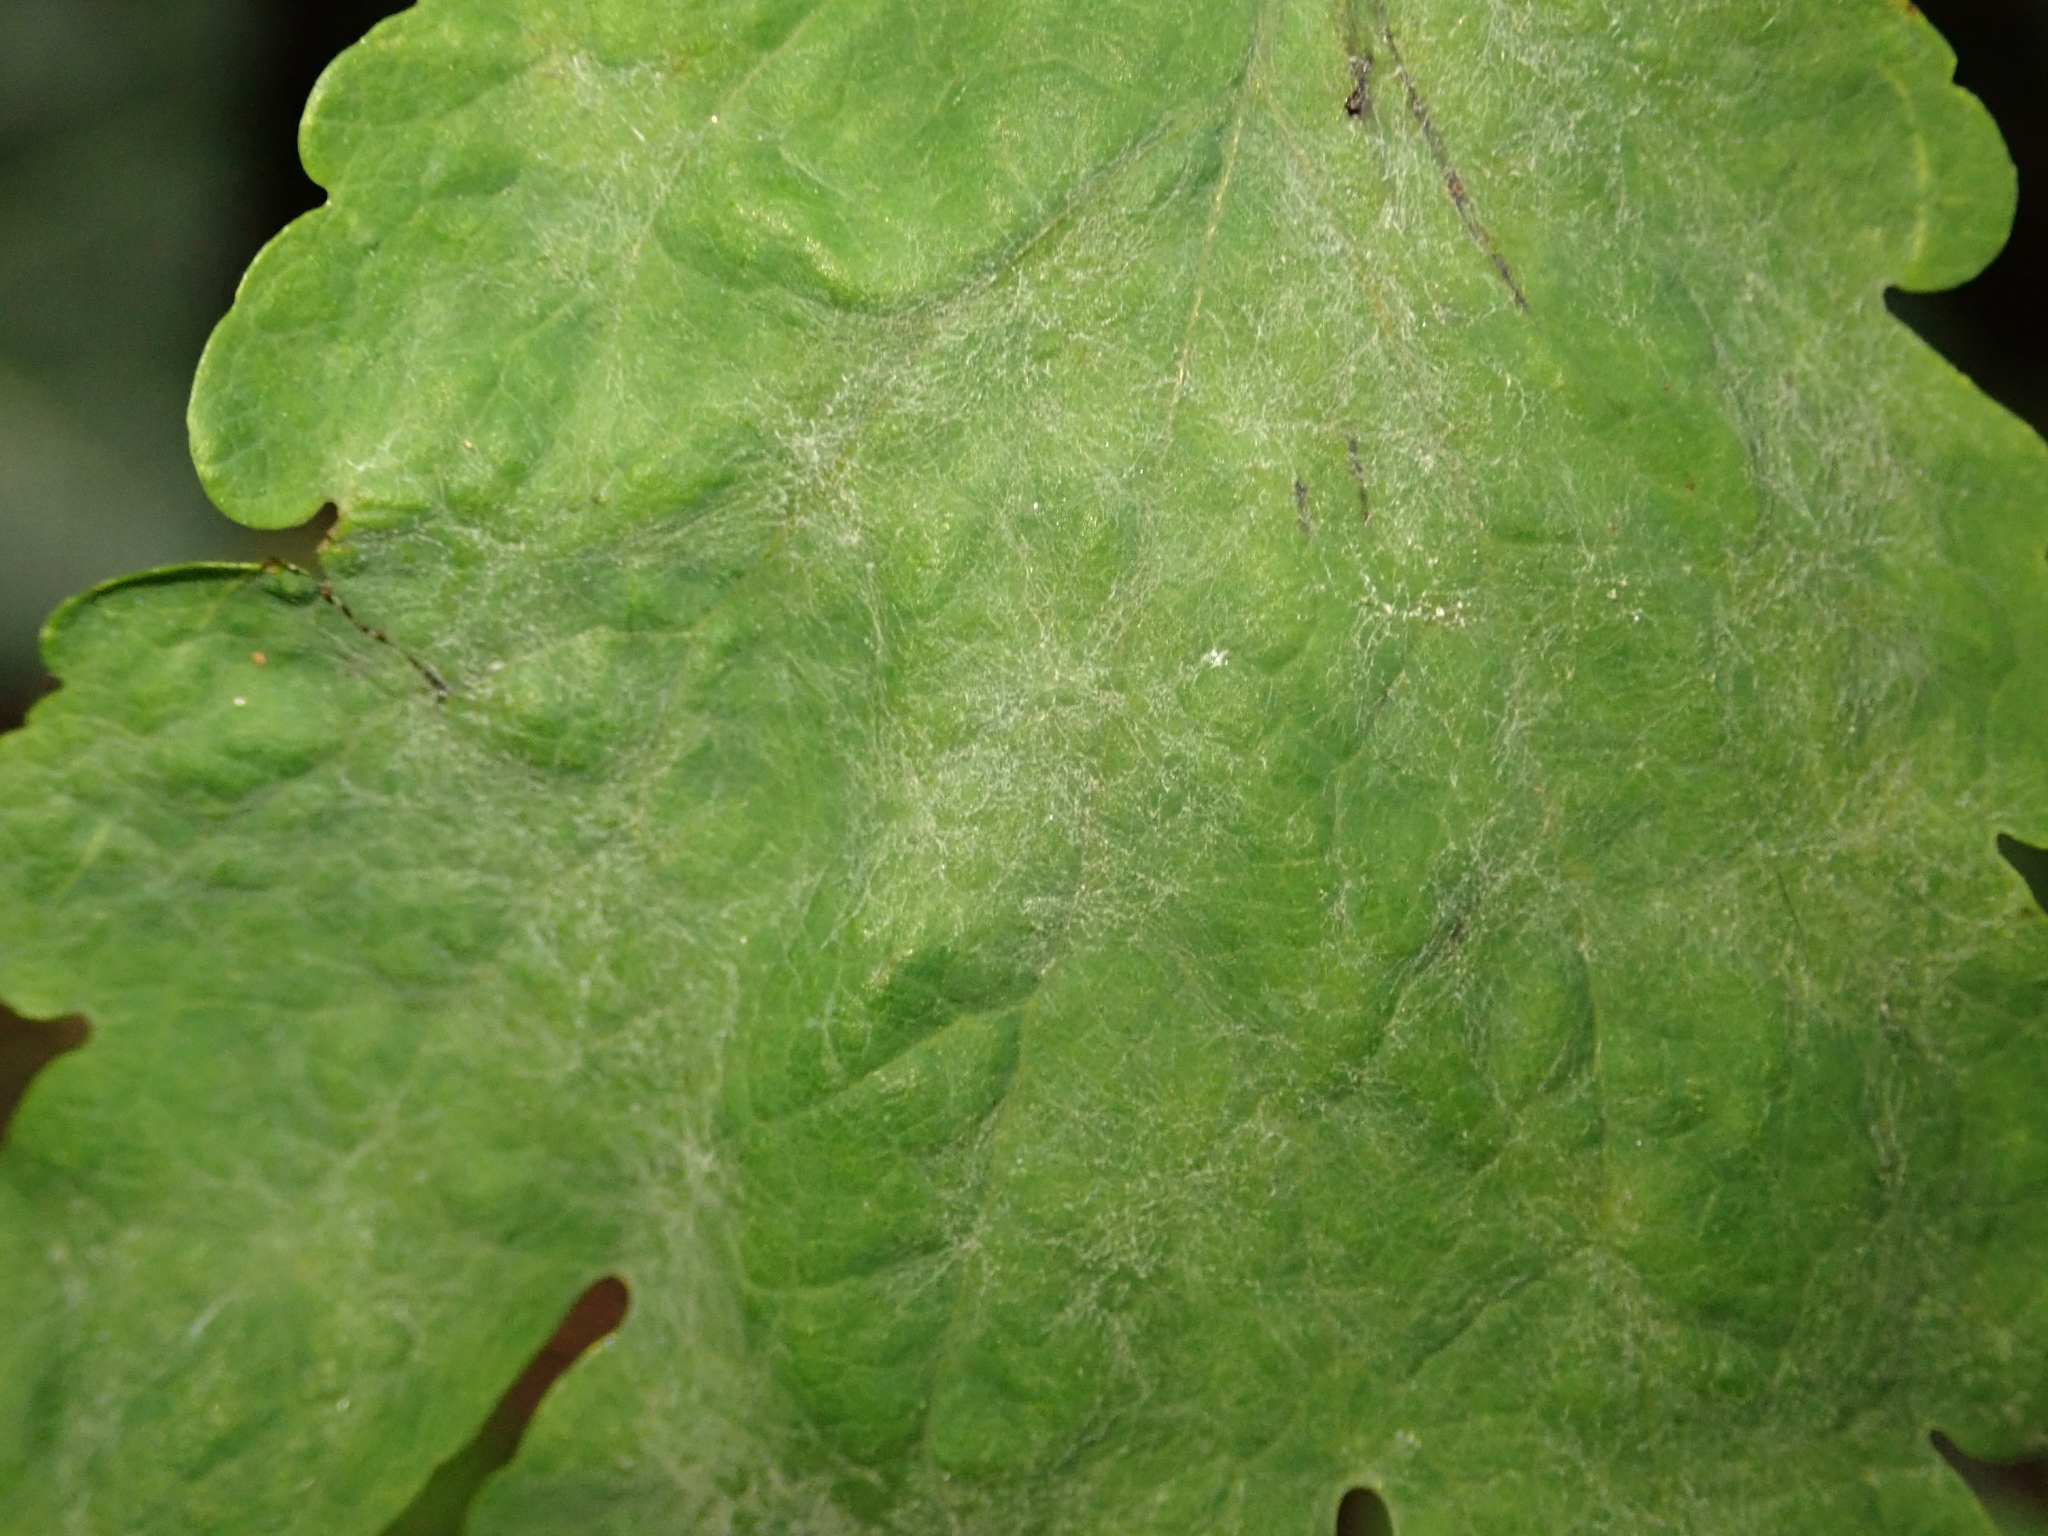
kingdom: Fungi
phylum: Ascomycota
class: Leotiomycetes
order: Helotiales
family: Erysiphaceae
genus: Erysiphe
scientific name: Erysiphe macleayae
